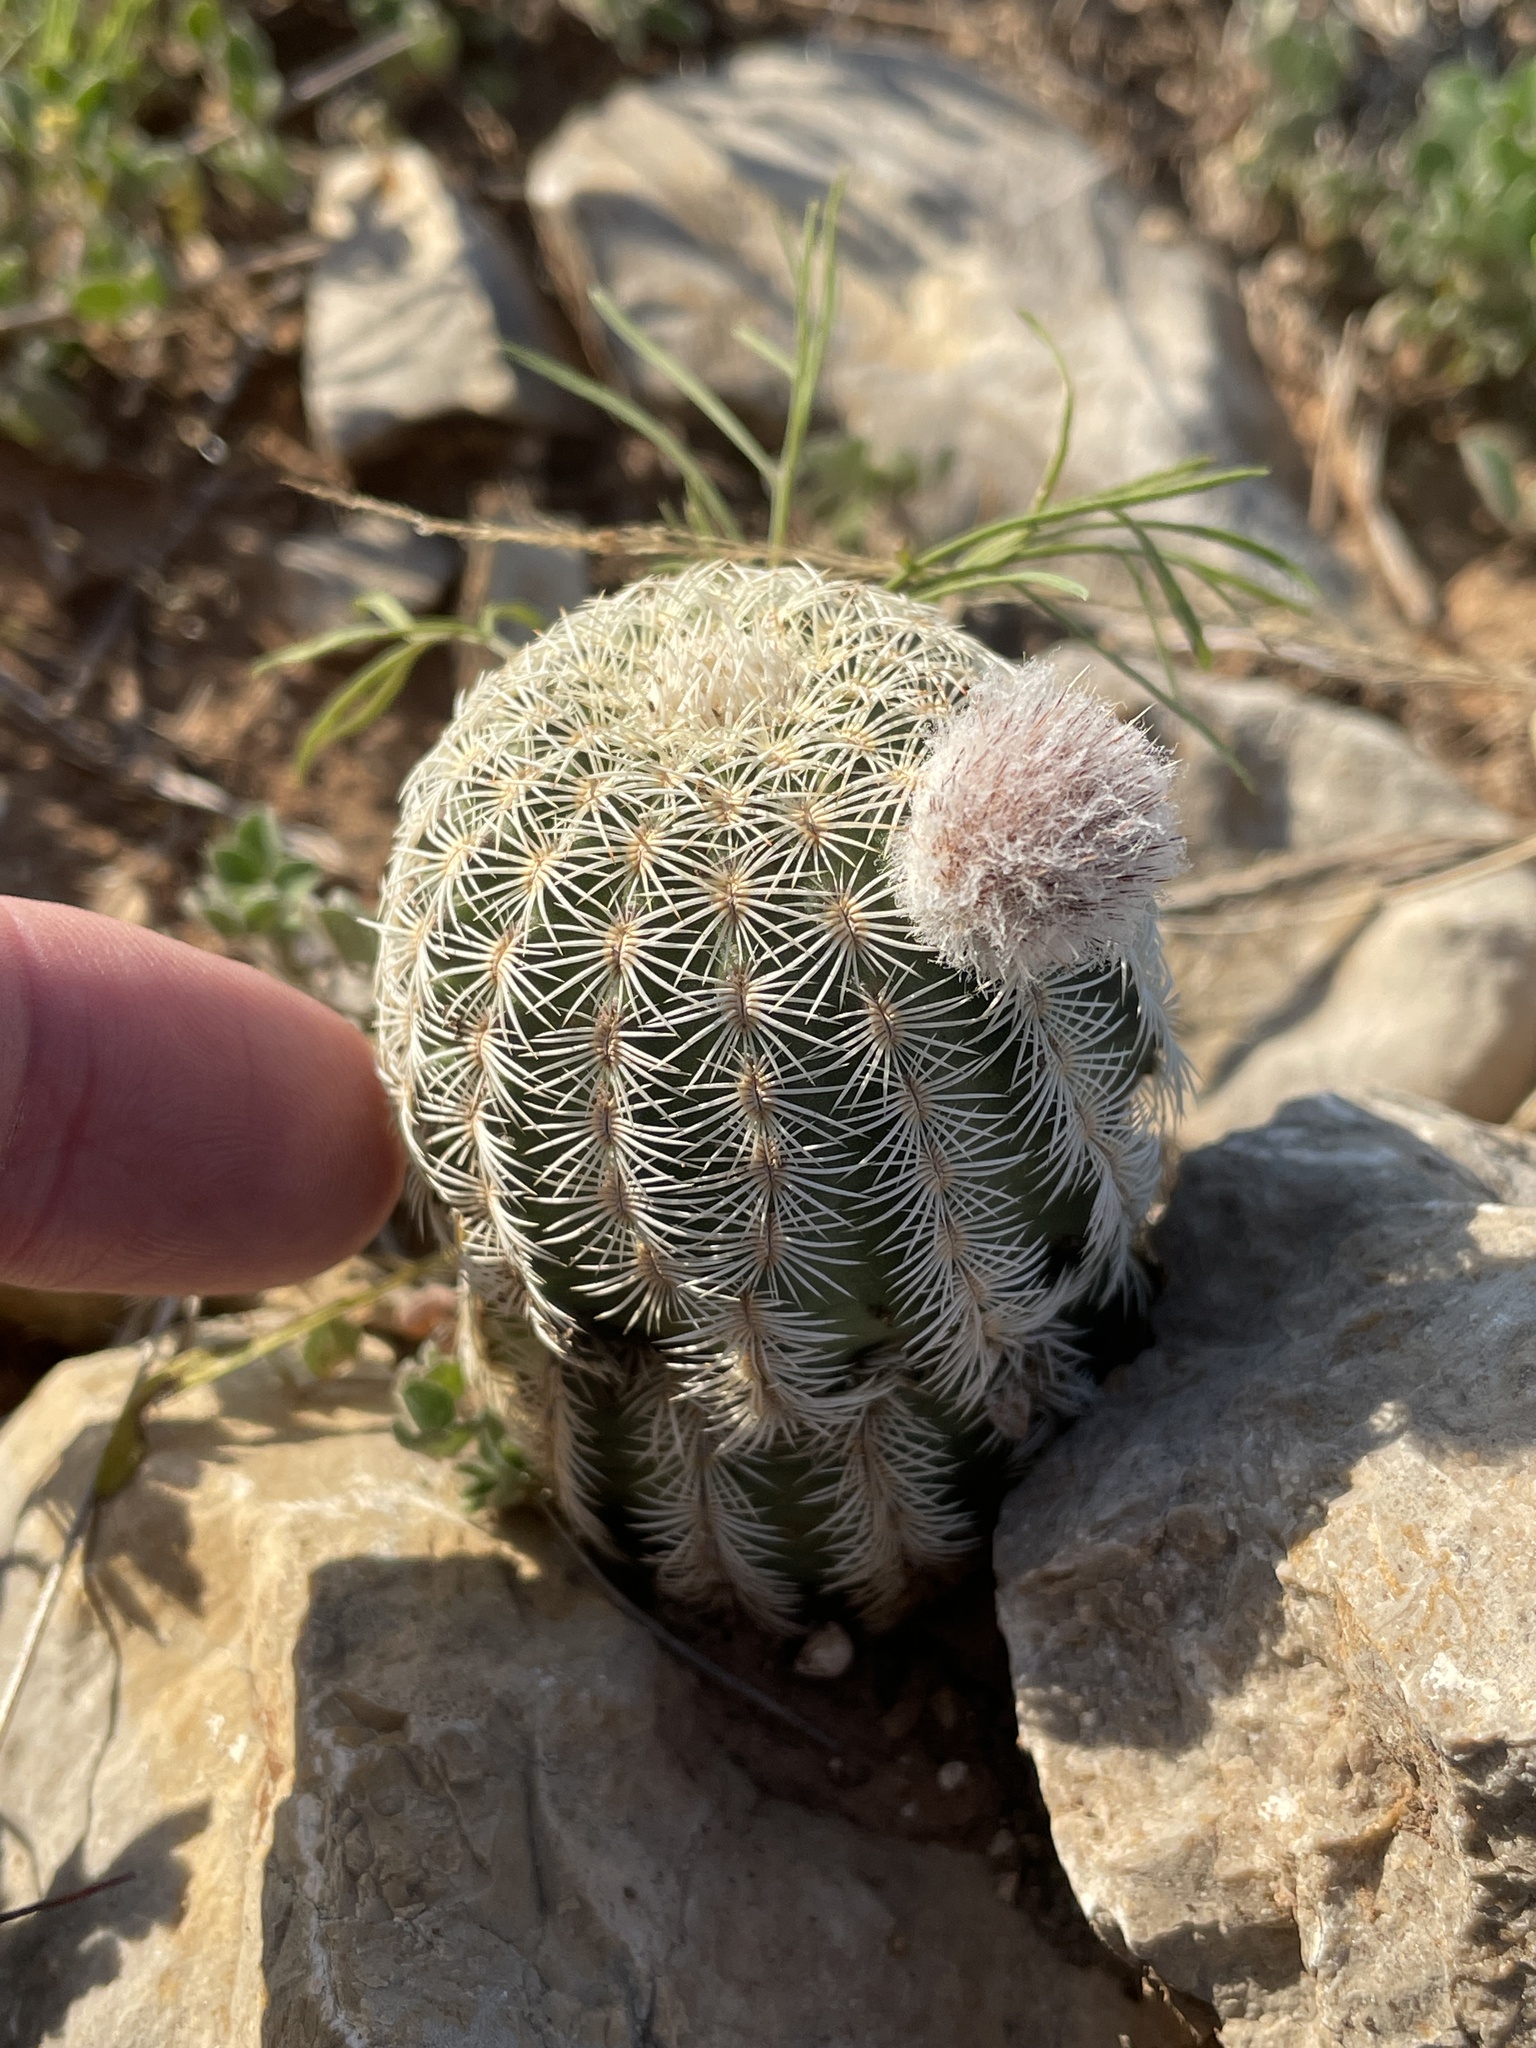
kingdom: Plantae
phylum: Tracheophyta
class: Magnoliopsida
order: Caryophyllales
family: Cactaceae
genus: Echinocereus
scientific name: Echinocereus reichenbachii
